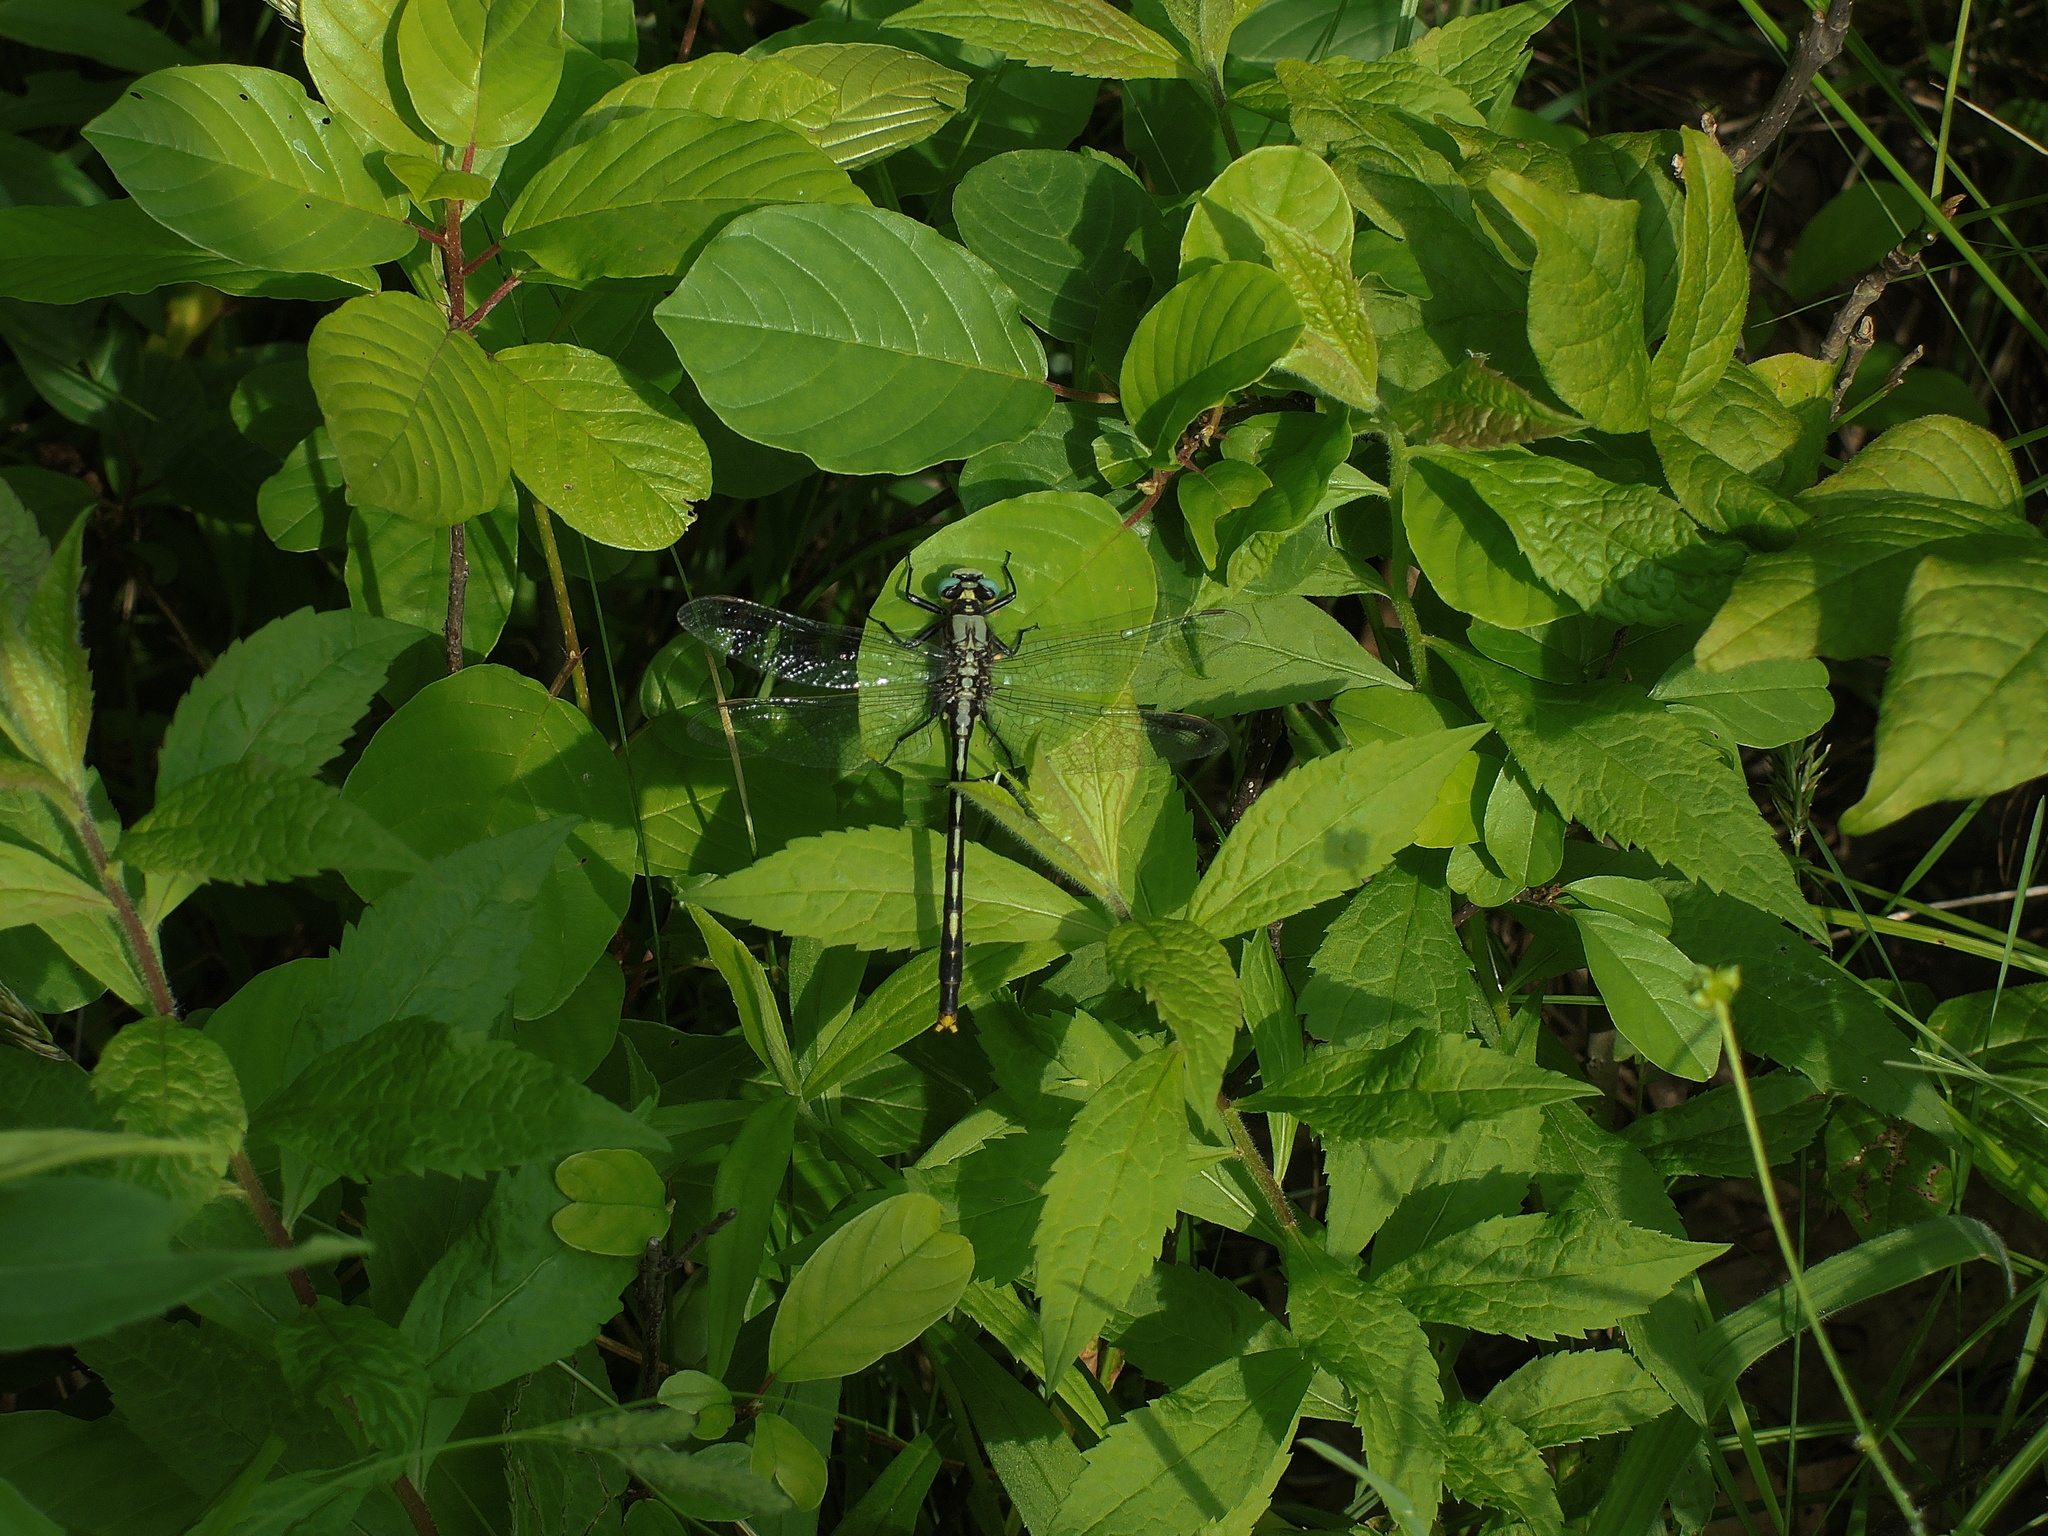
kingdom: Animalia
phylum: Arthropoda
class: Insecta
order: Odonata
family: Gomphidae
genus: Arigomphus
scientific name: Arigomphus furcifer
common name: Lilypad clubtail
